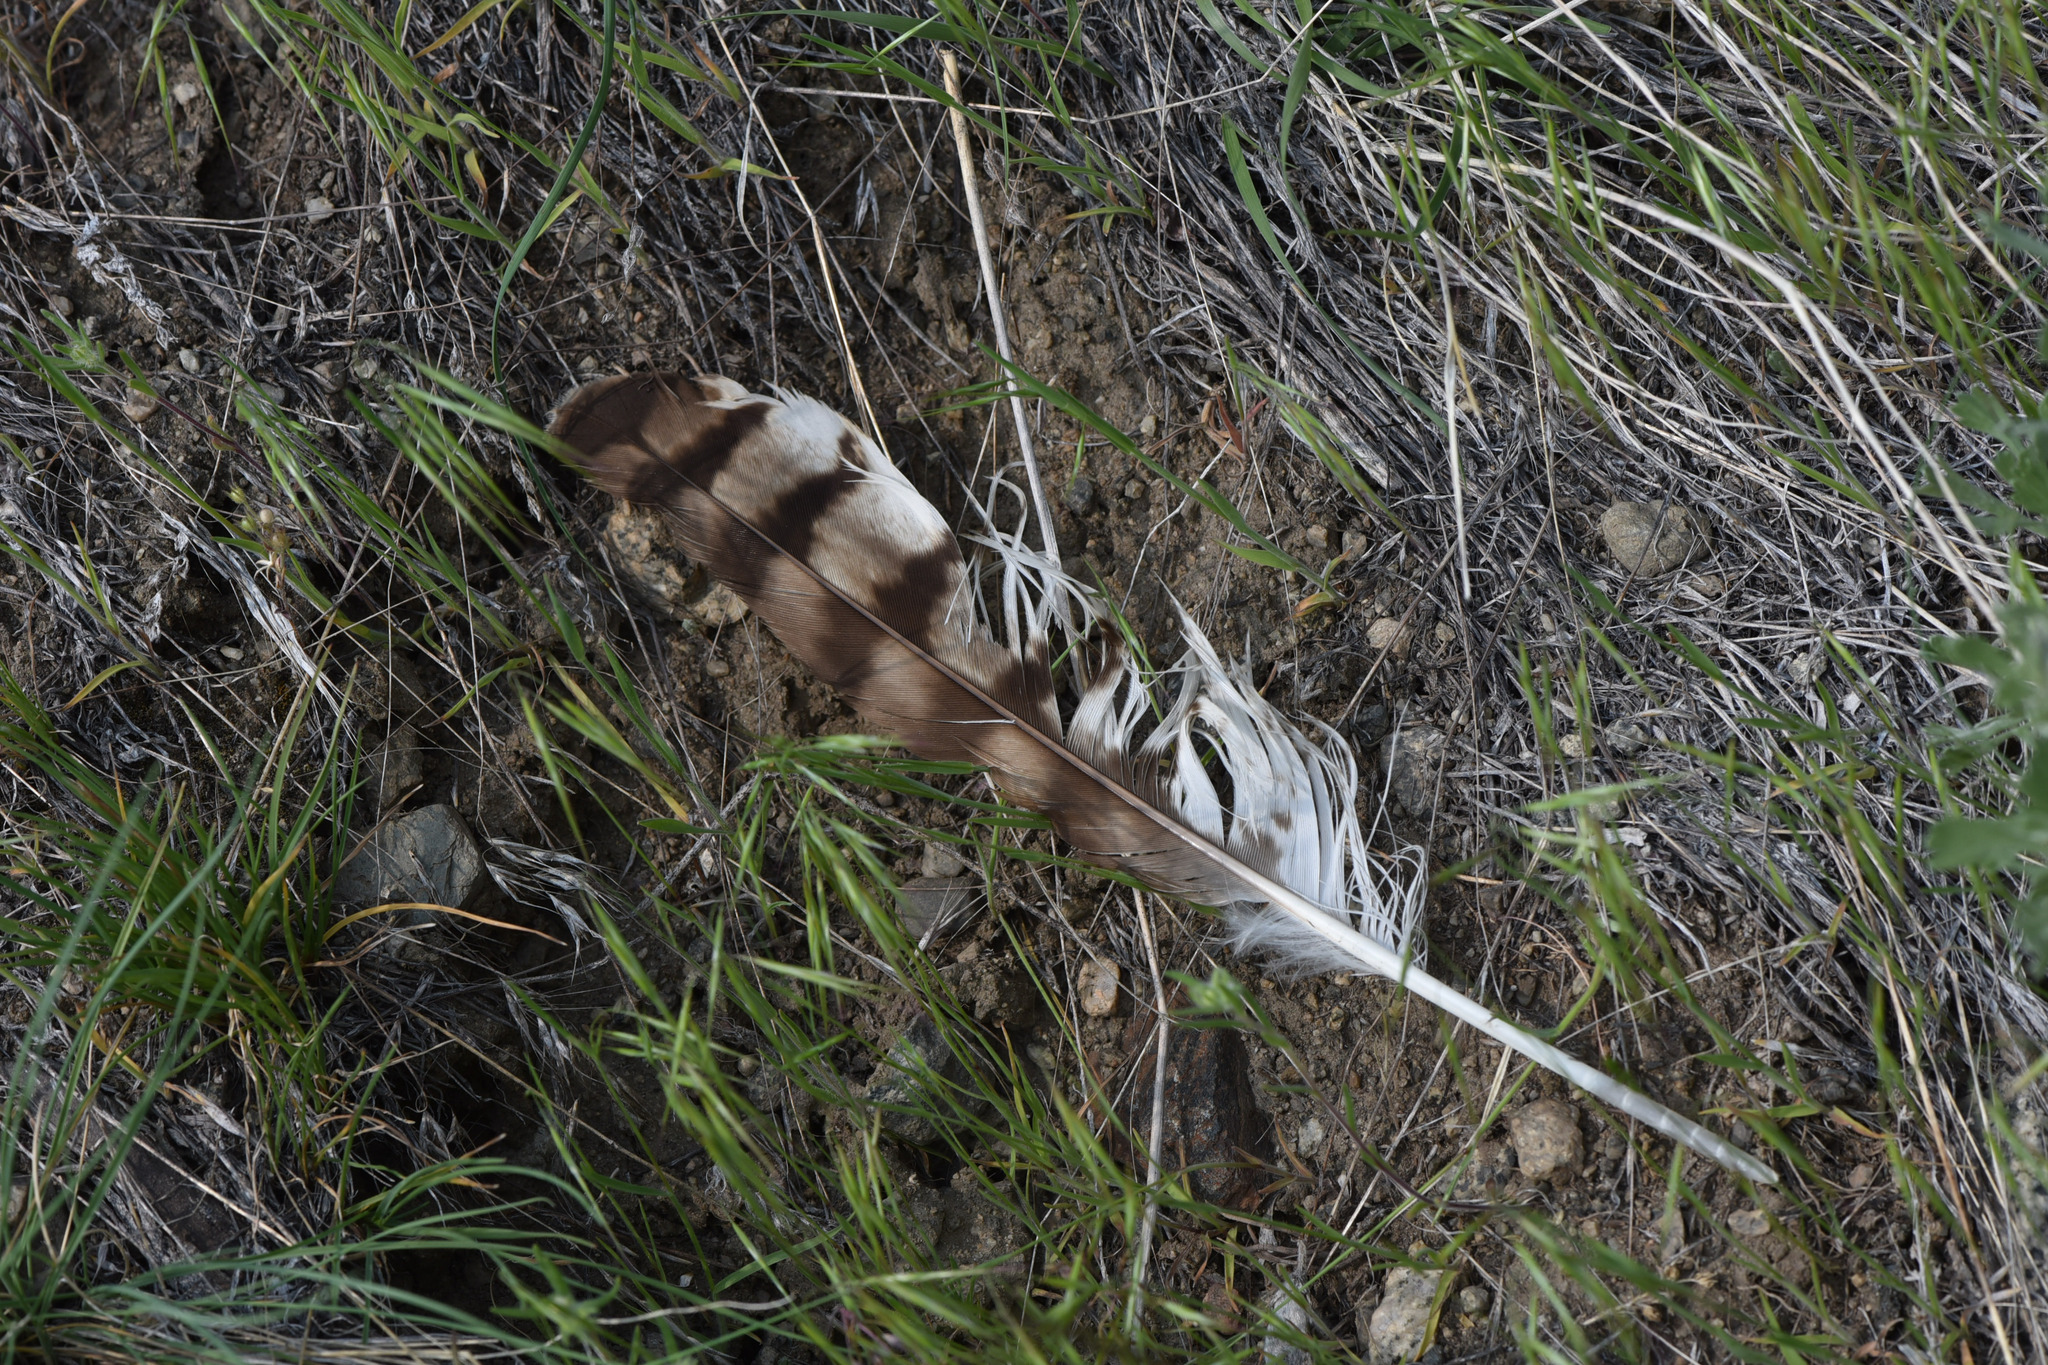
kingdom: Animalia
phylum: Chordata
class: Aves
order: Accipitriformes
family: Accipitridae
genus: Buteo
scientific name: Buteo jamaicensis
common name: Red-tailed hawk
